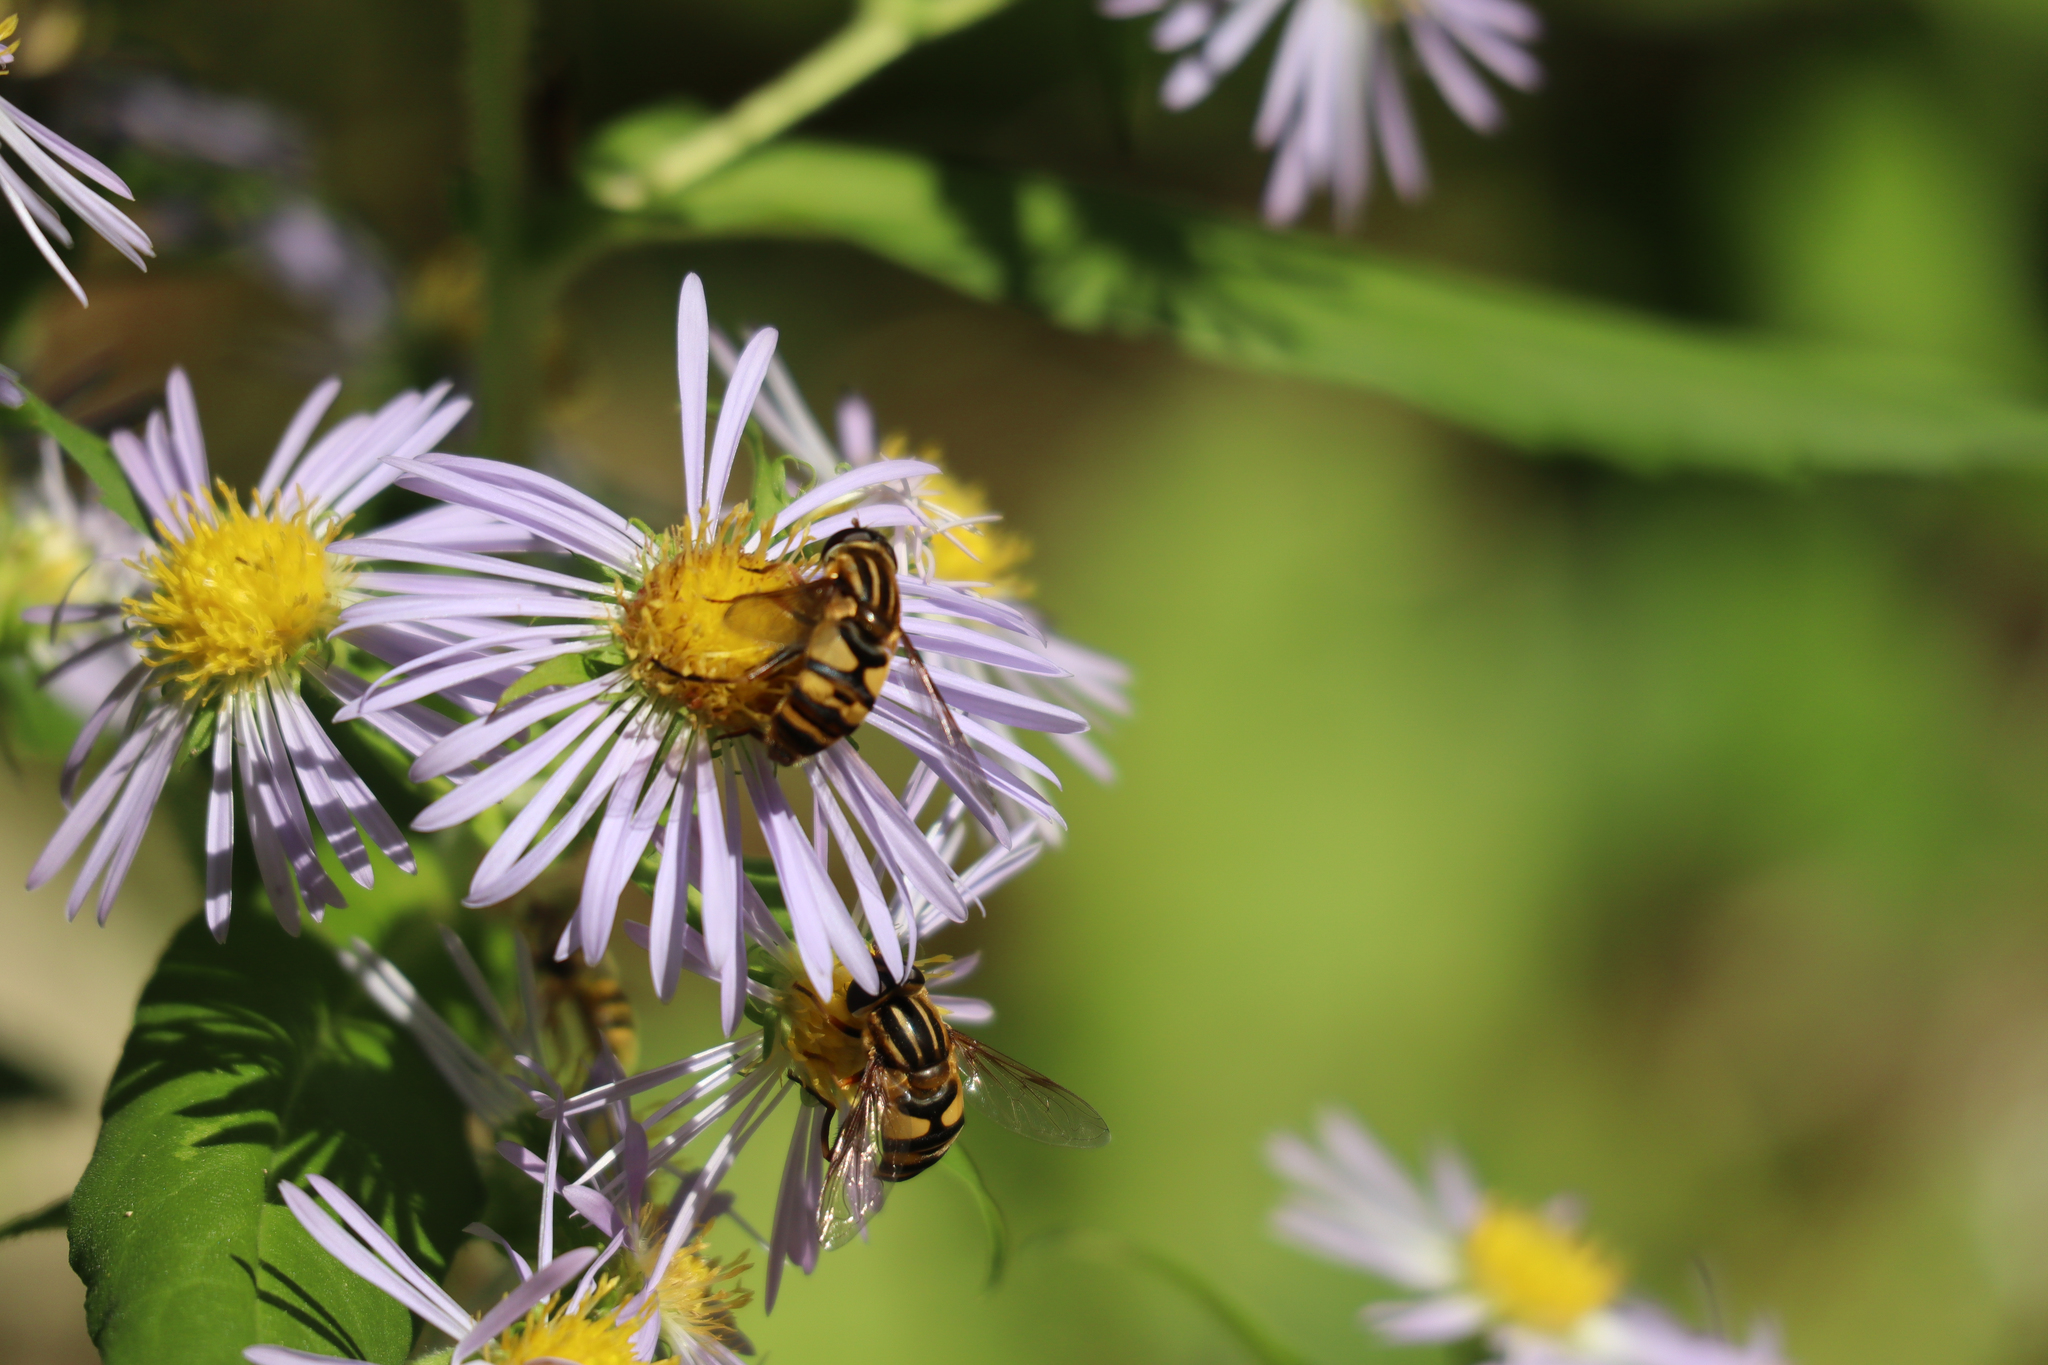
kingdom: Animalia
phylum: Arthropoda
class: Insecta
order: Diptera
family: Syrphidae
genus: Helophilus
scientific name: Helophilus fasciatus
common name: Narrow-headed marsh fly
